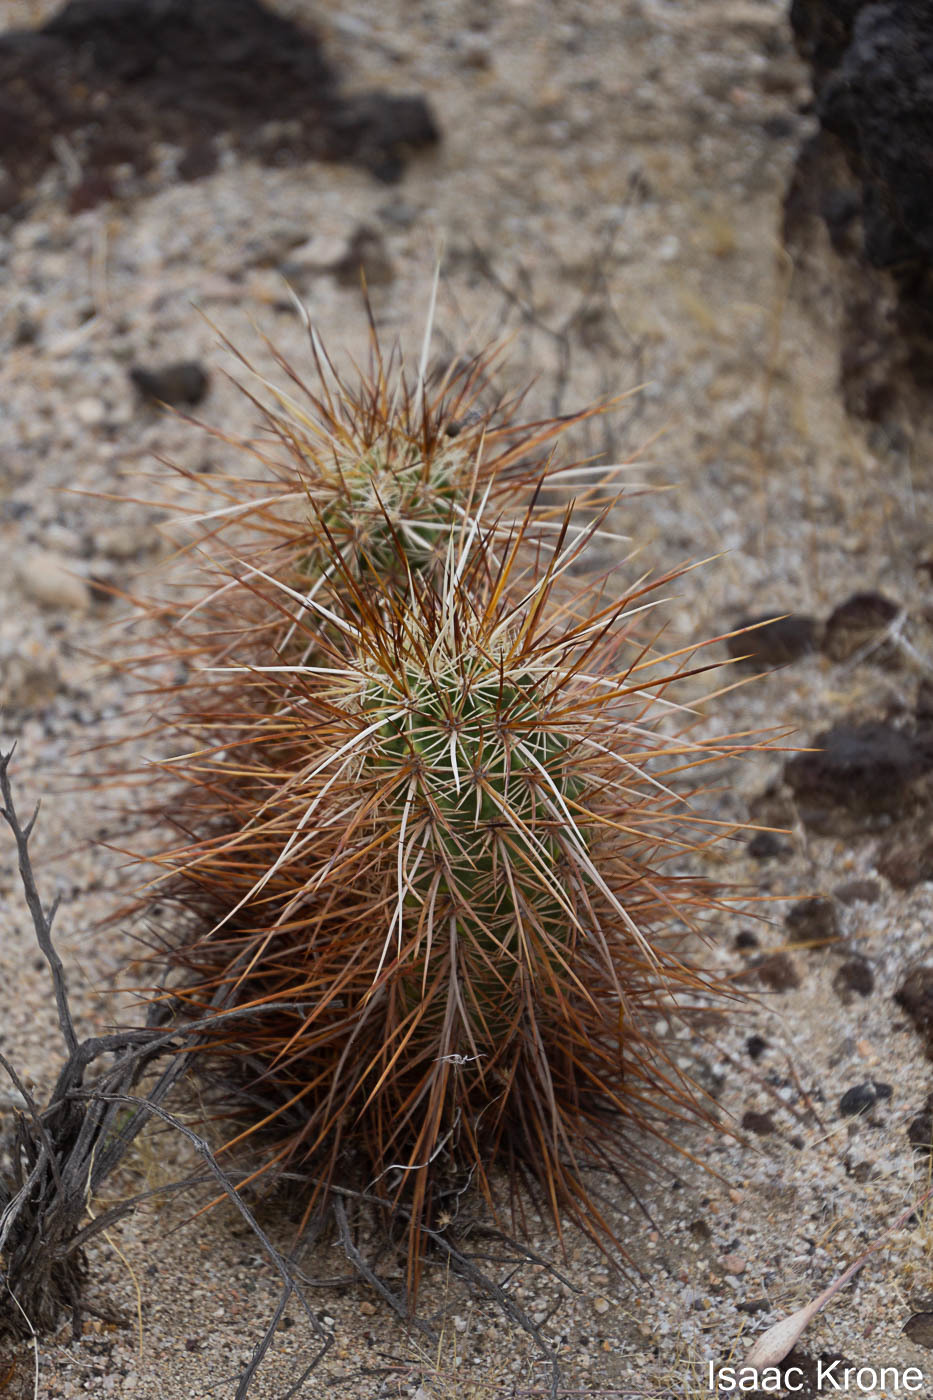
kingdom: Plantae
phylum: Tracheophyta
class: Magnoliopsida
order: Caryophyllales
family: Cactaceae
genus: Echinocereus
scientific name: Echinocereus engelmannii
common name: Engelmann's hedgehog cactus
